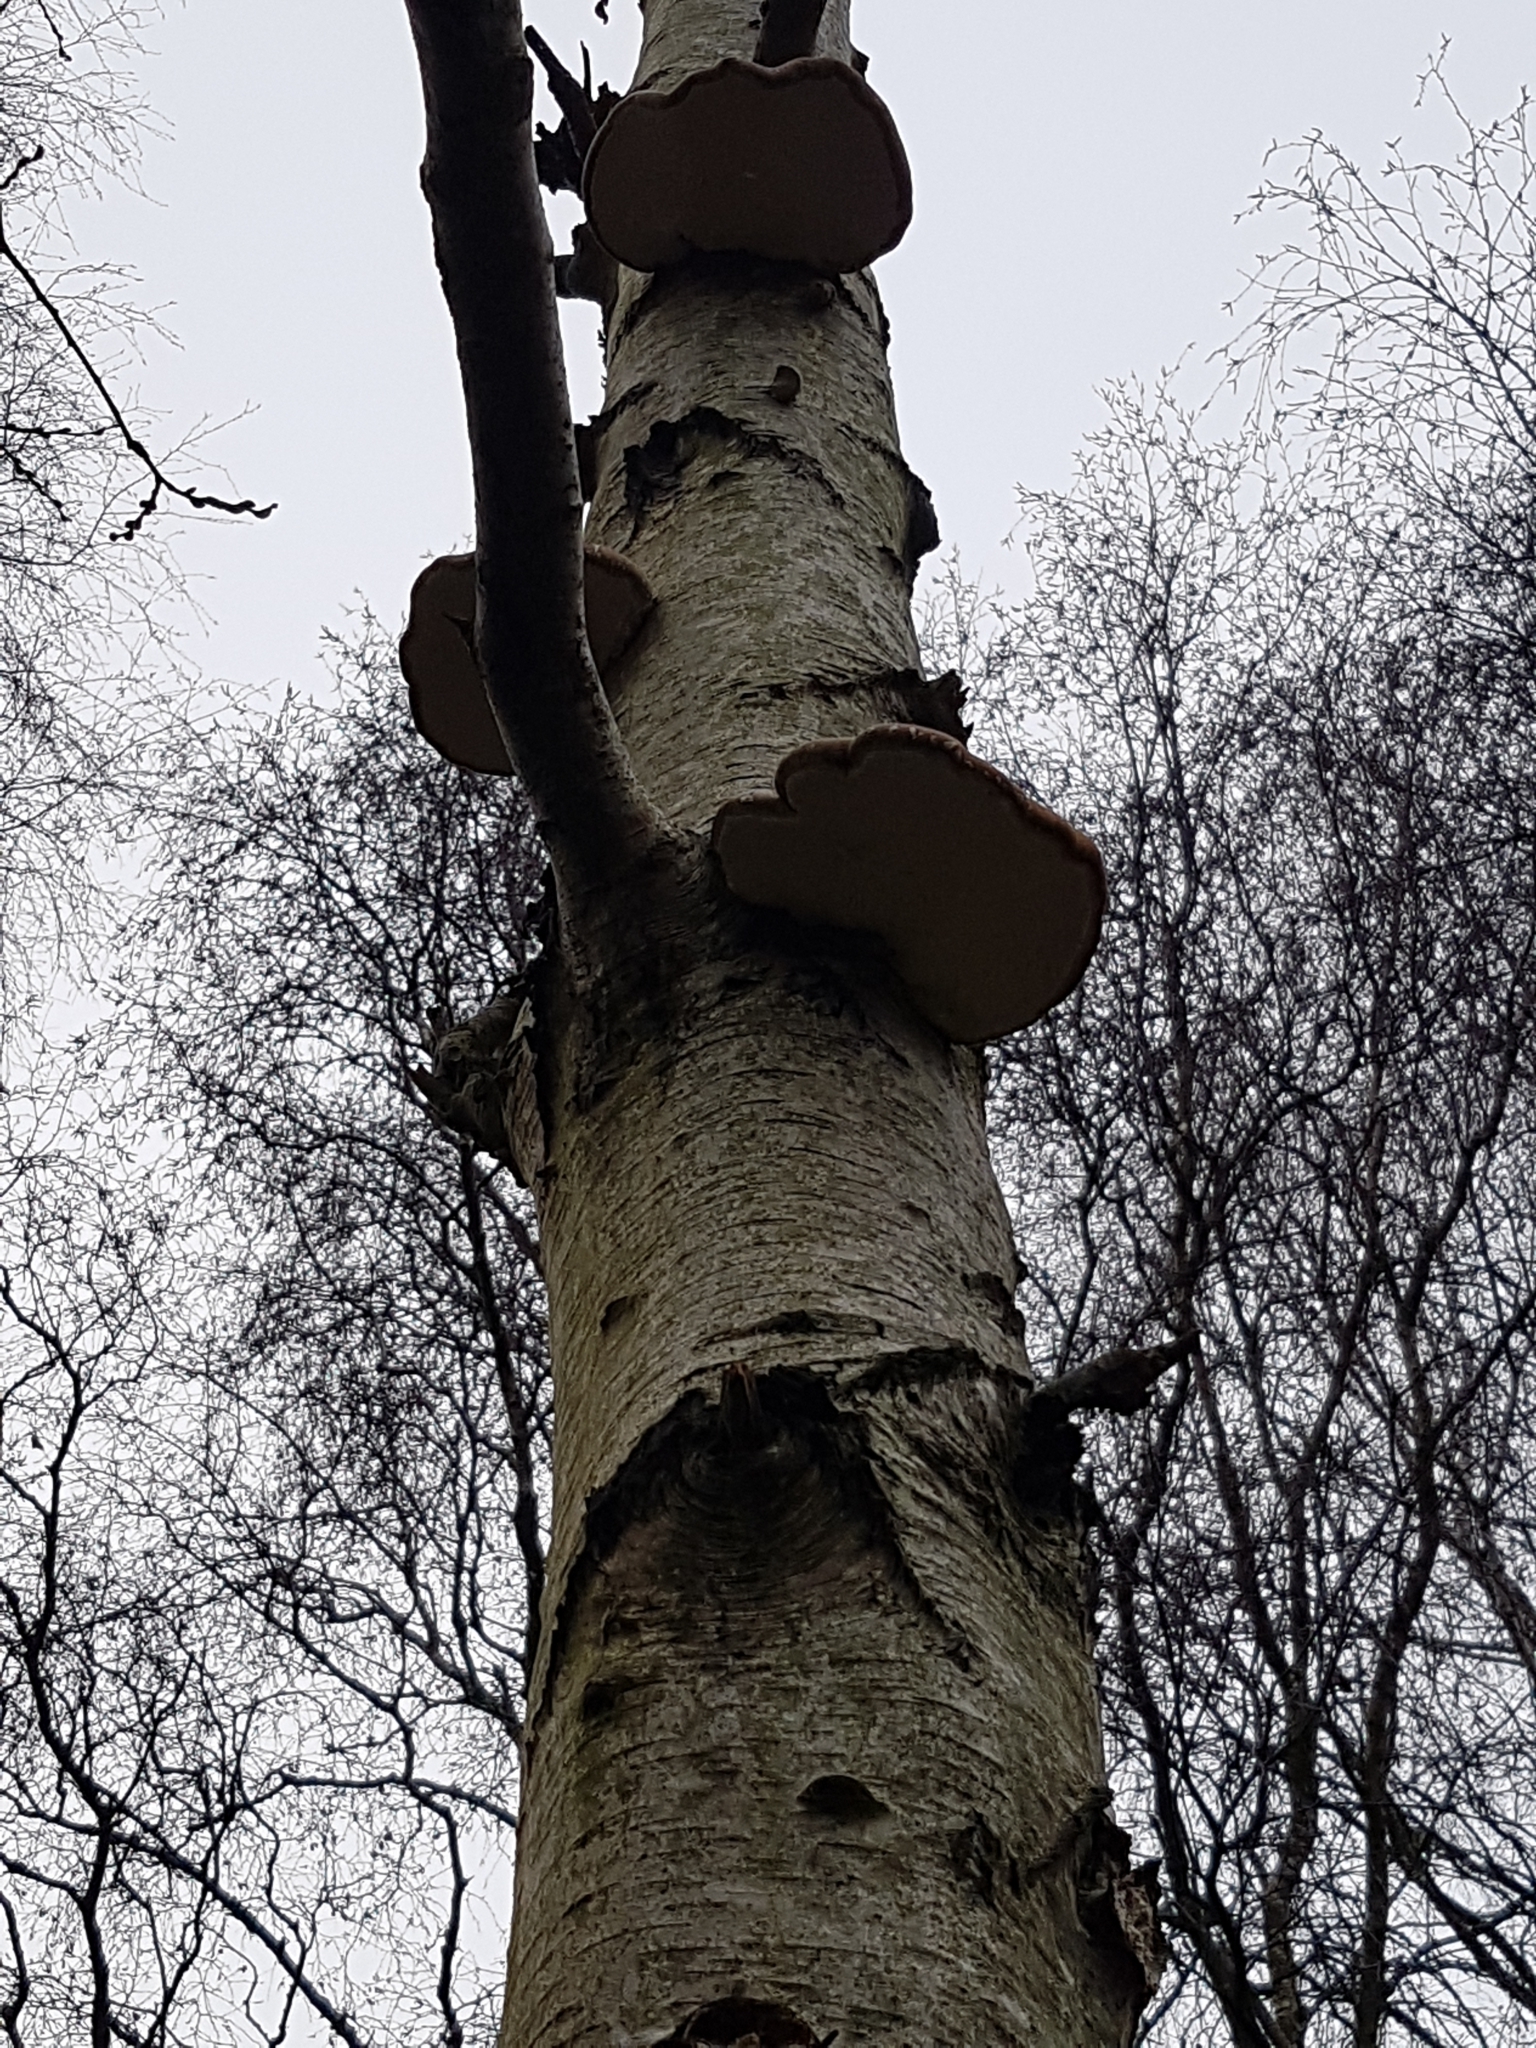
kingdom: Fungi
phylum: Basidiomycota
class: Agaricomycetes
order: Polyporales
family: Fomitopsidaceae
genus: Fomitopsis
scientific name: Fomitopsis betulina
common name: Birch polypore
